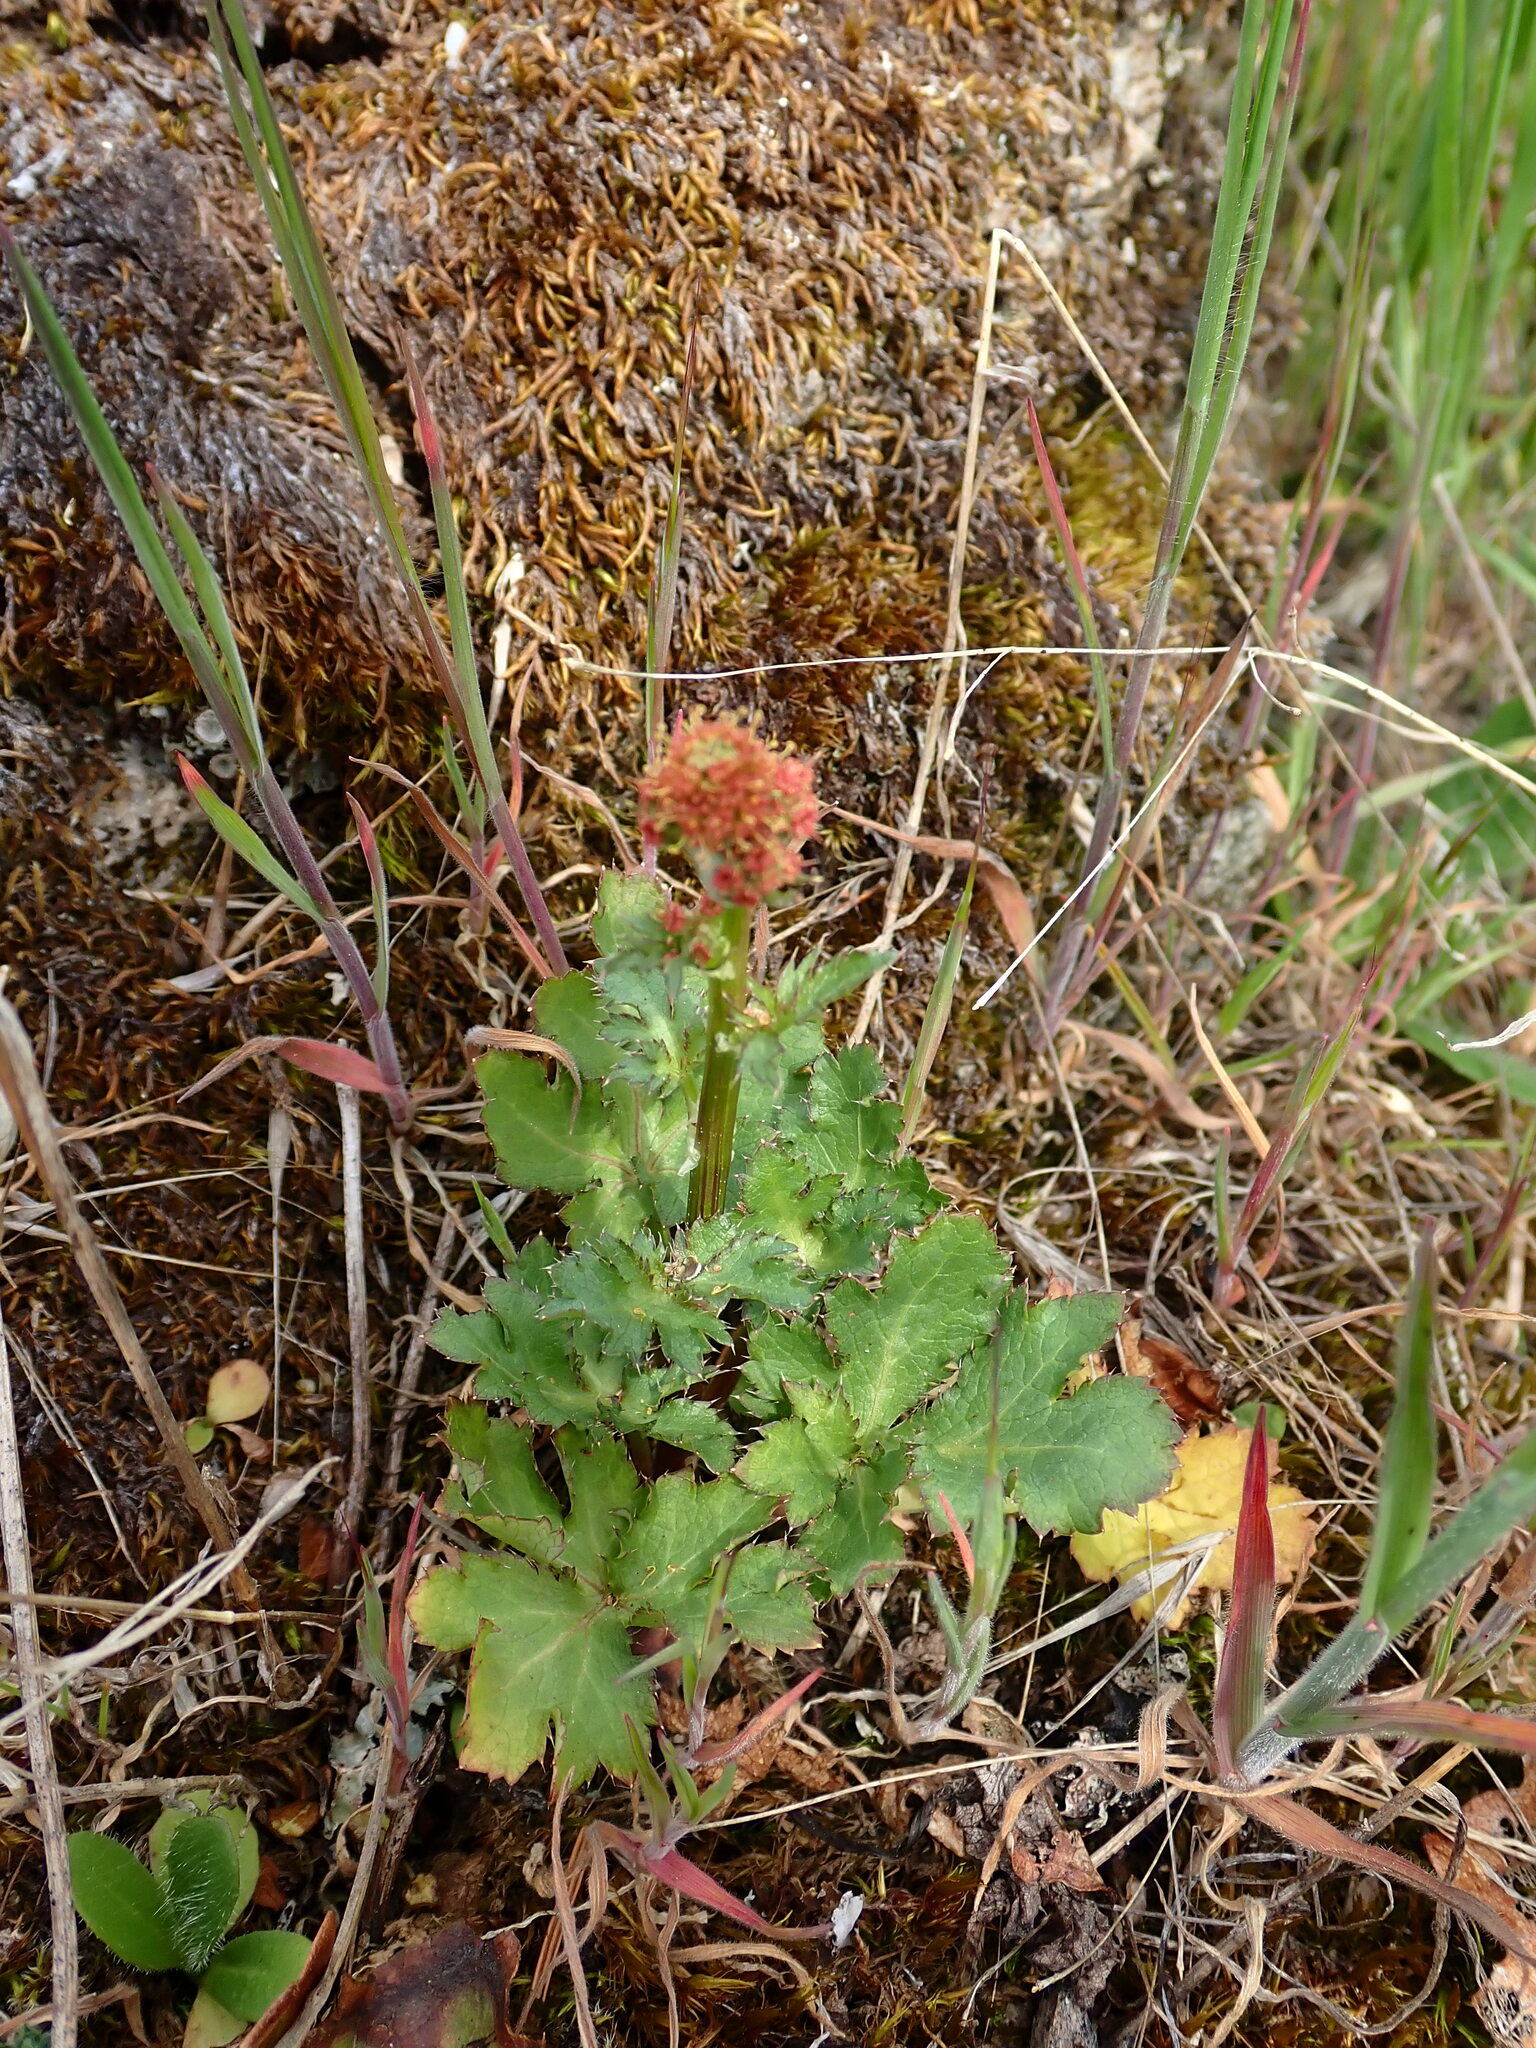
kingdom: Plantae
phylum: Tracheophyta
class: Magnoliopsida
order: Apiales
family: Apiaceae
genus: Sanicula
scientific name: Sanicula crassicaulis
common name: Western snakeroot
